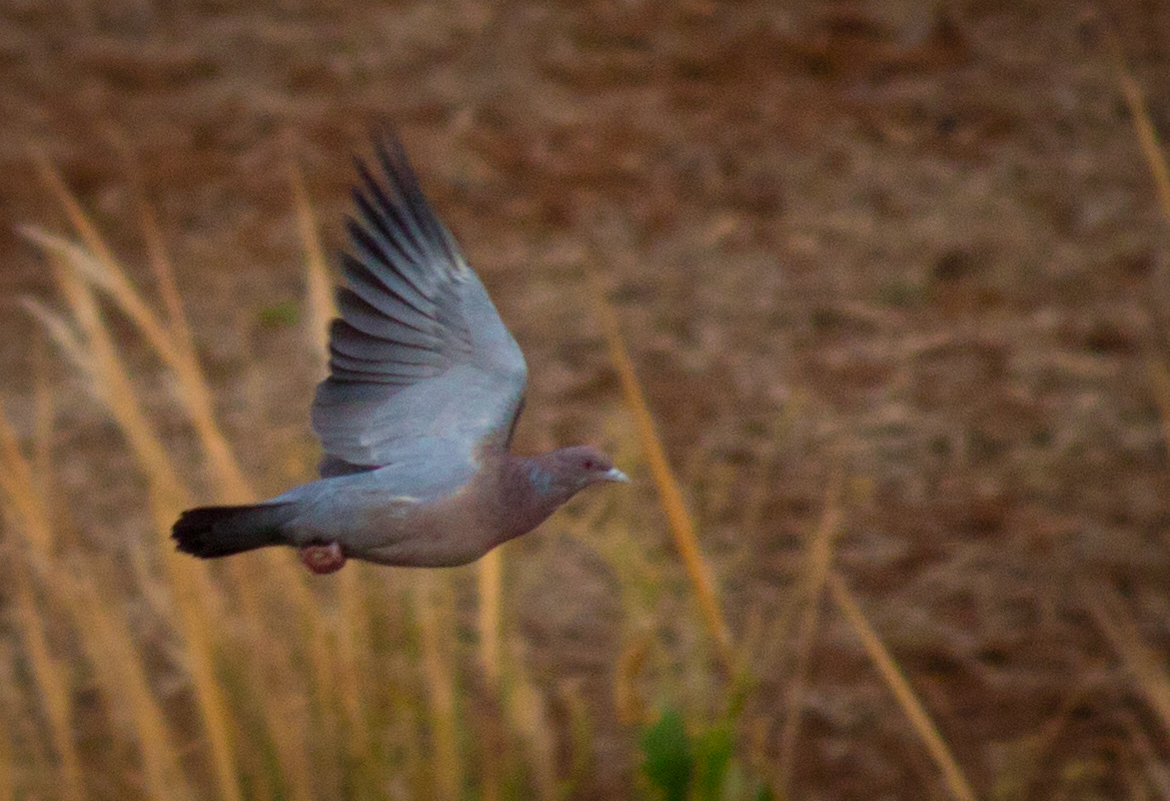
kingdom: Animalia
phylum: Chordata
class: Aves
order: Columbiformes
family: Columbidae
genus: Patagioenas
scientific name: Patagioenas picazuro
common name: Picazuro pigeon
